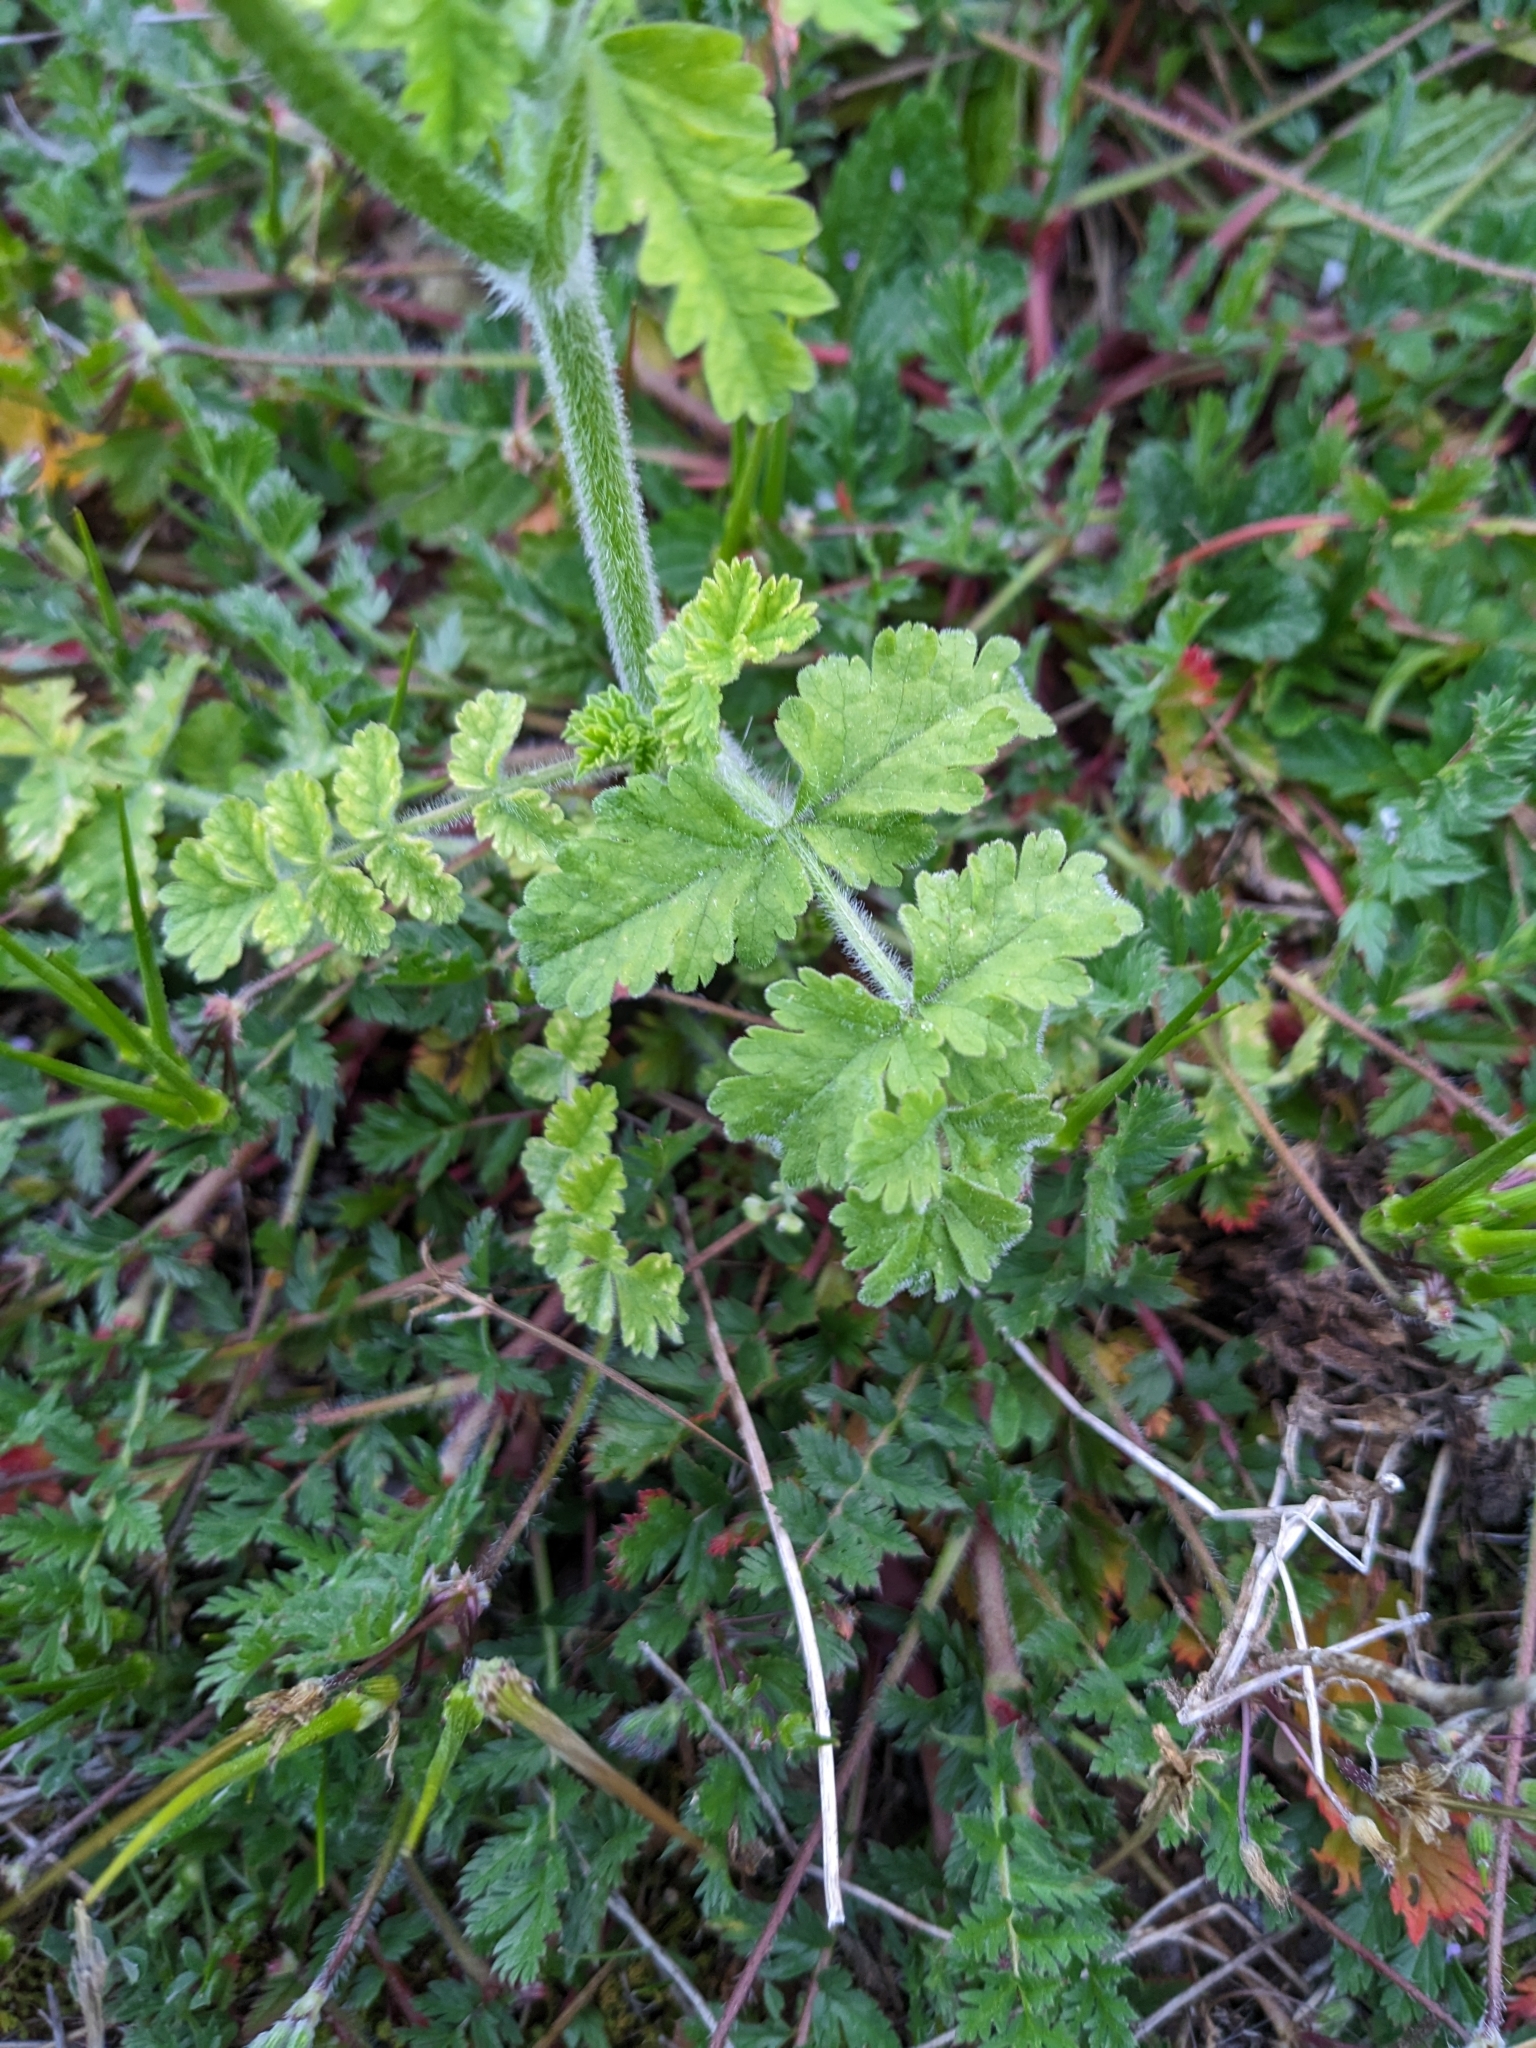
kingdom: Plantae
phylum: Tracheophyta
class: Magnoliopsida
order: Apiales
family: Apiaceae
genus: Tordylium
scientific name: Tordylium apulum
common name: Mediterranean hartwort
